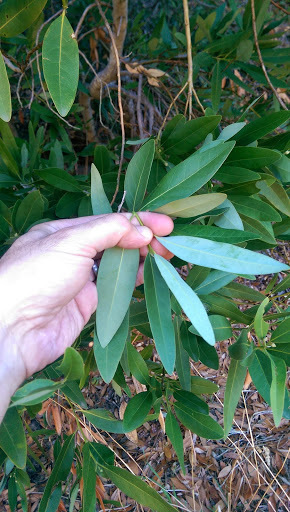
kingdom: Plantae
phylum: Tracheophyta
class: Magnoliopsida
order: Laurales
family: Lauraceae
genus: Umbellularia
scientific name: Umbellularia californica
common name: California bay
